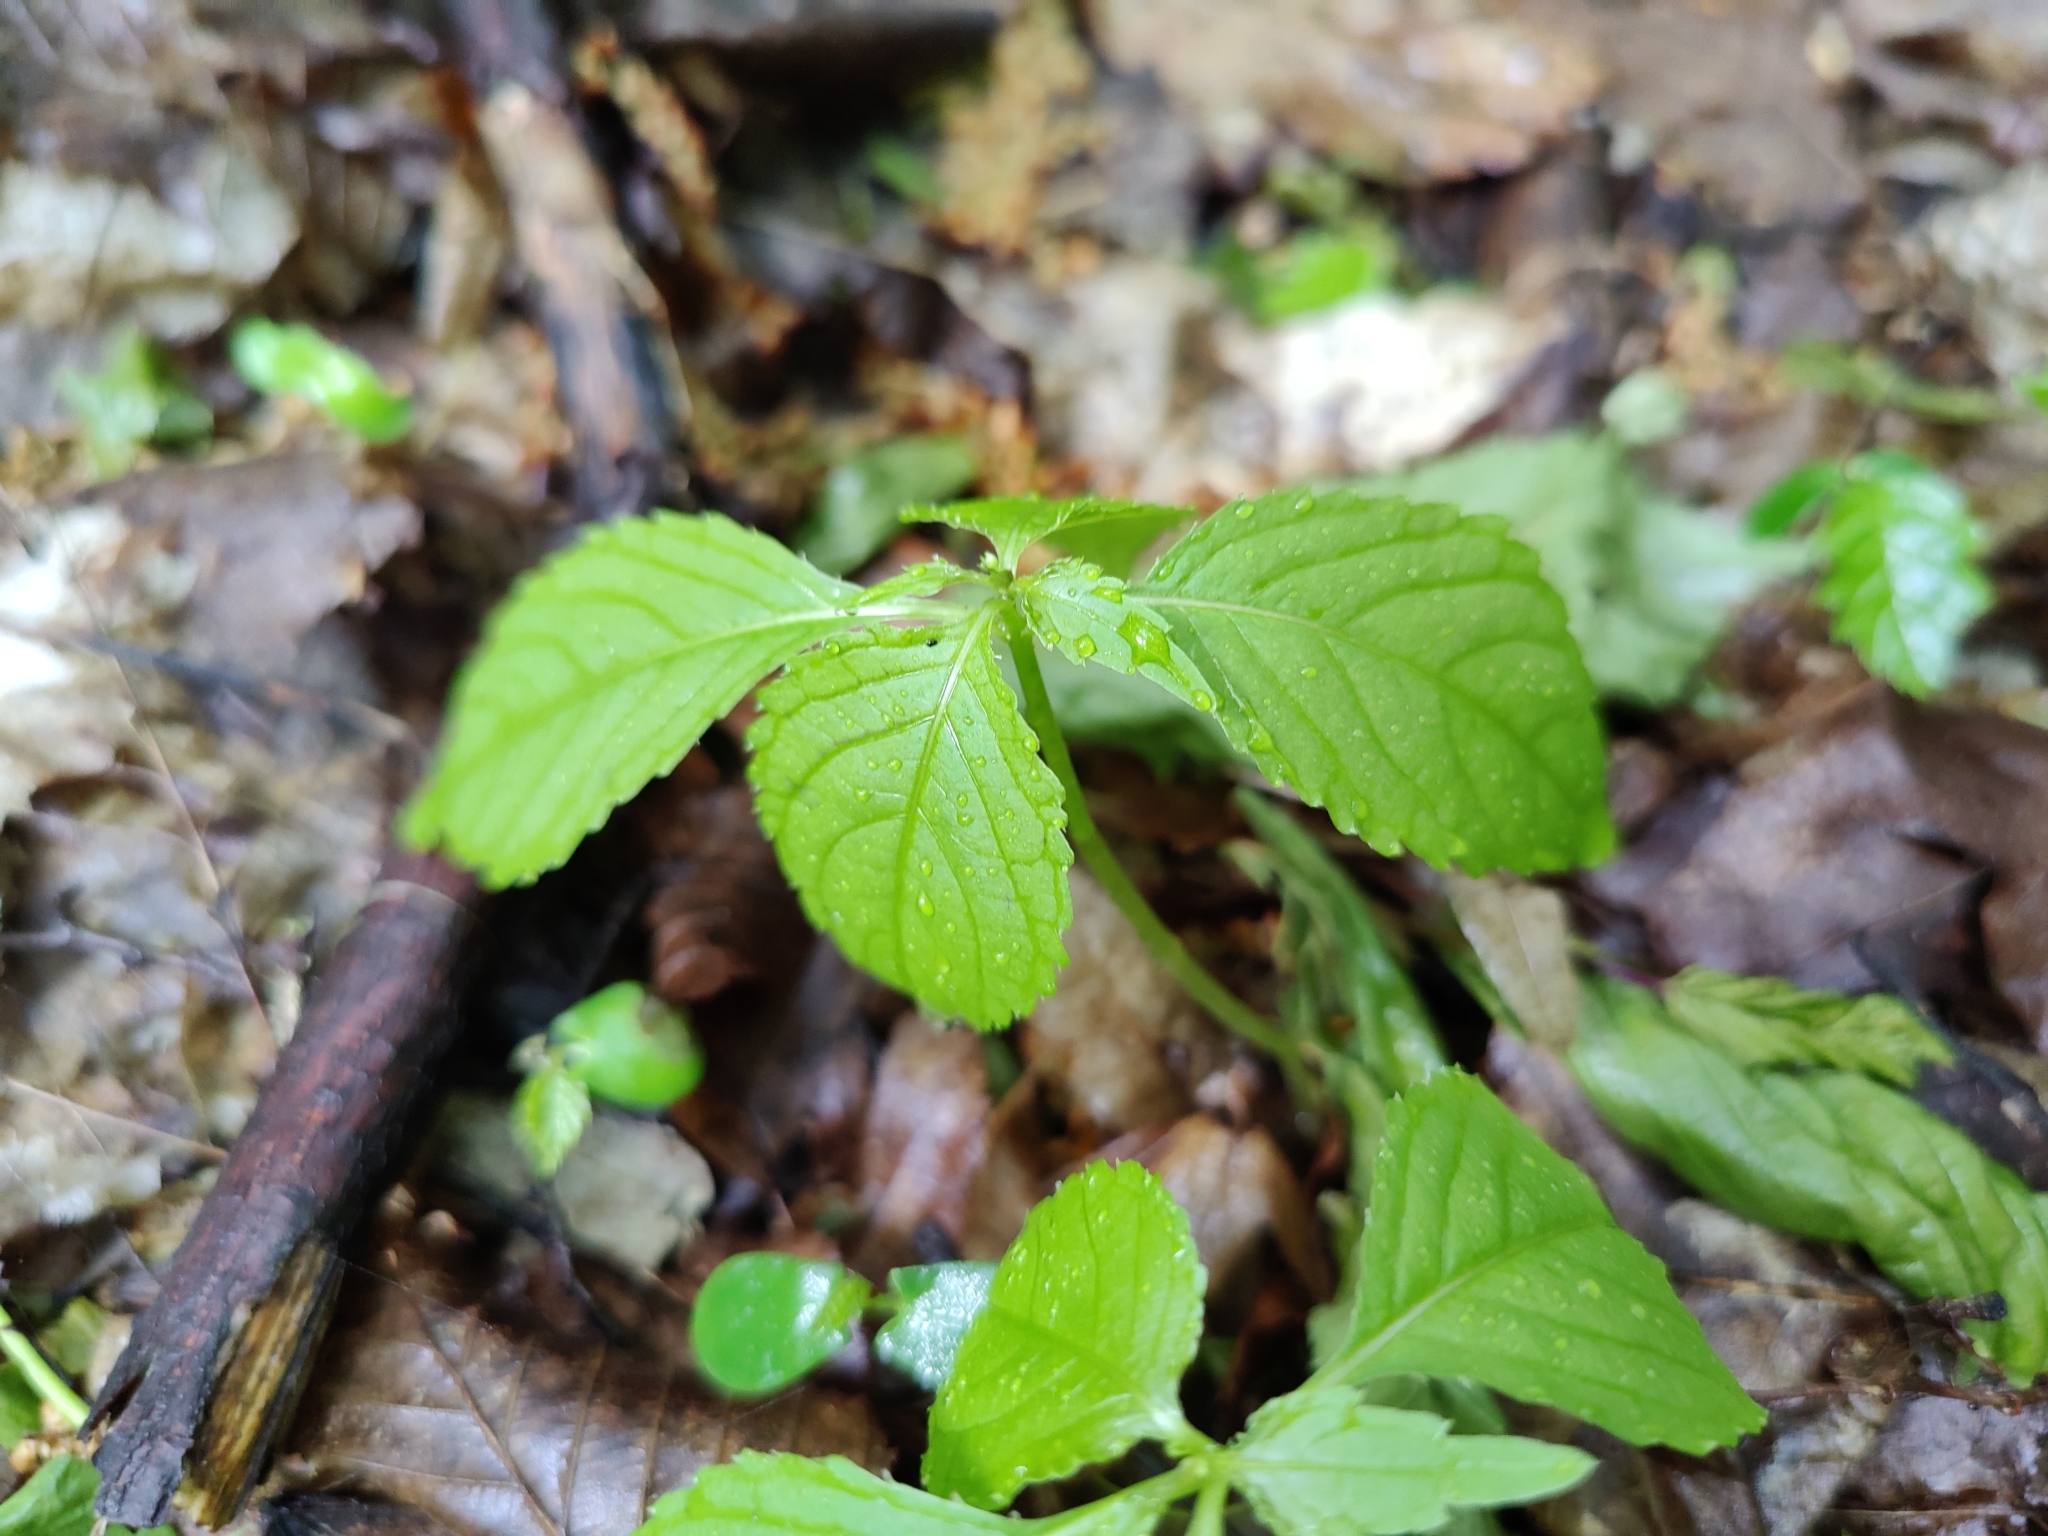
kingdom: Plantae
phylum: Tracheophyta
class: Magnoliopsida
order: Ericales
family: Balsaminaceae
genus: Impatiens
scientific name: Impatiens parviflora
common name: Small balsam
